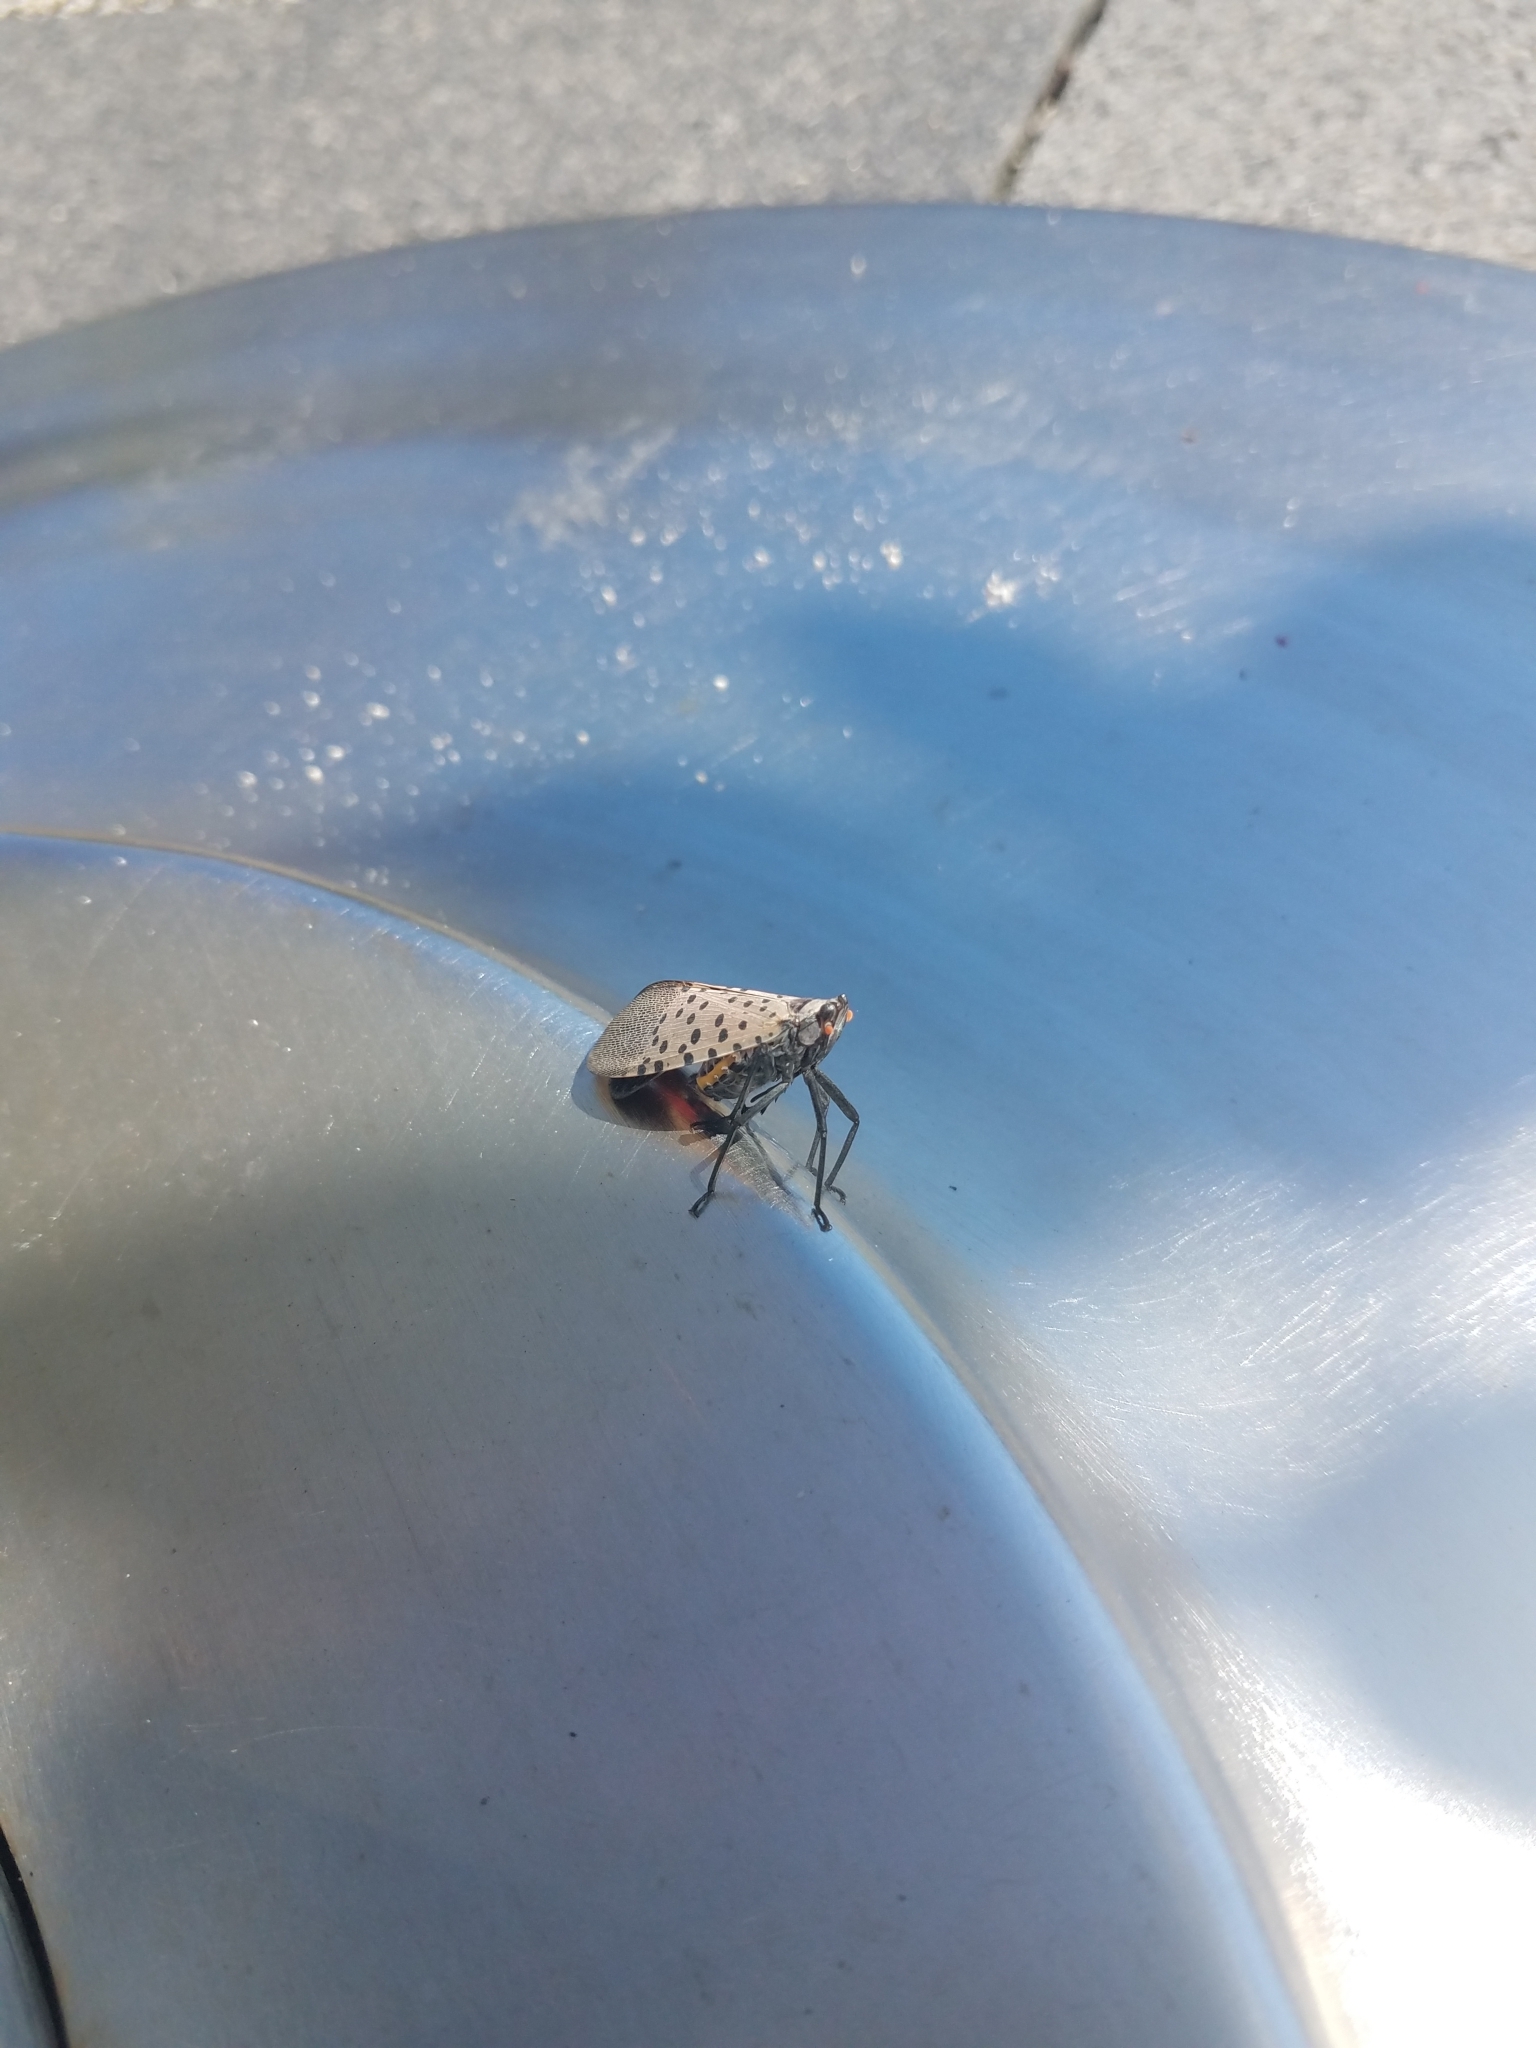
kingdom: Animalia
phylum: Arthropoda
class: Insecta
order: Hemiptera
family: Fulgoridae
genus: Lycorma
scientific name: Lycorma delicatula
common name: Spotted lanternfly
